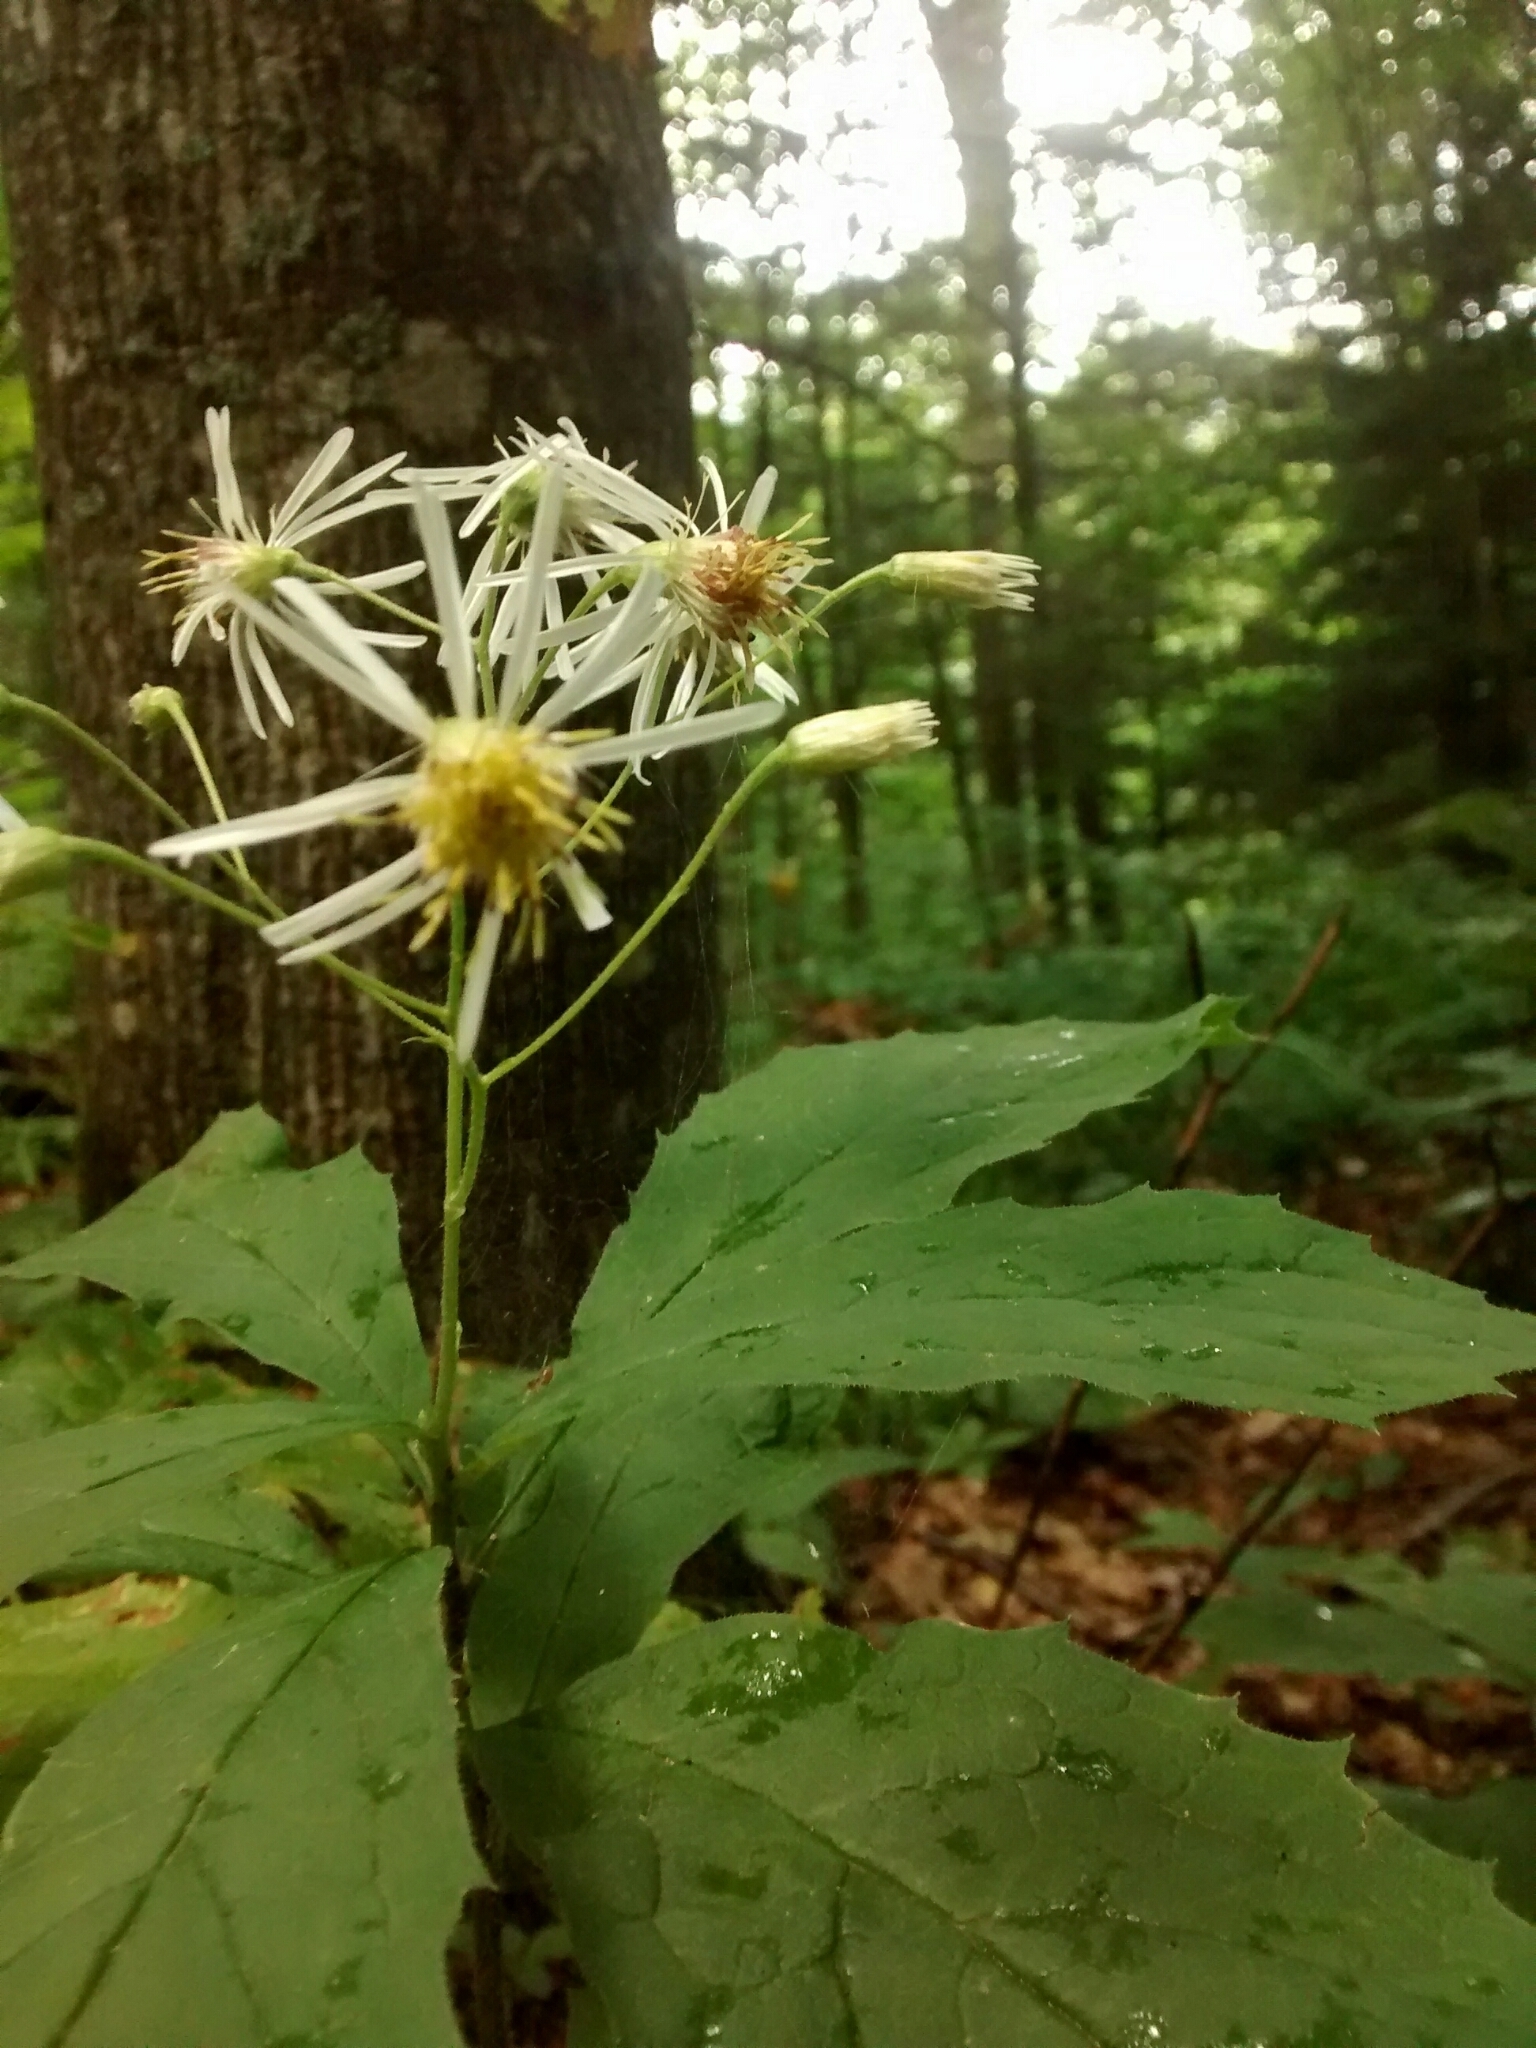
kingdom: Plantae
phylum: Tracheophyta
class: Magnoliopsida
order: Asterales
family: Asteraceae
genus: Oclemena
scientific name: Oclemena acuminata
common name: Mountain aster
